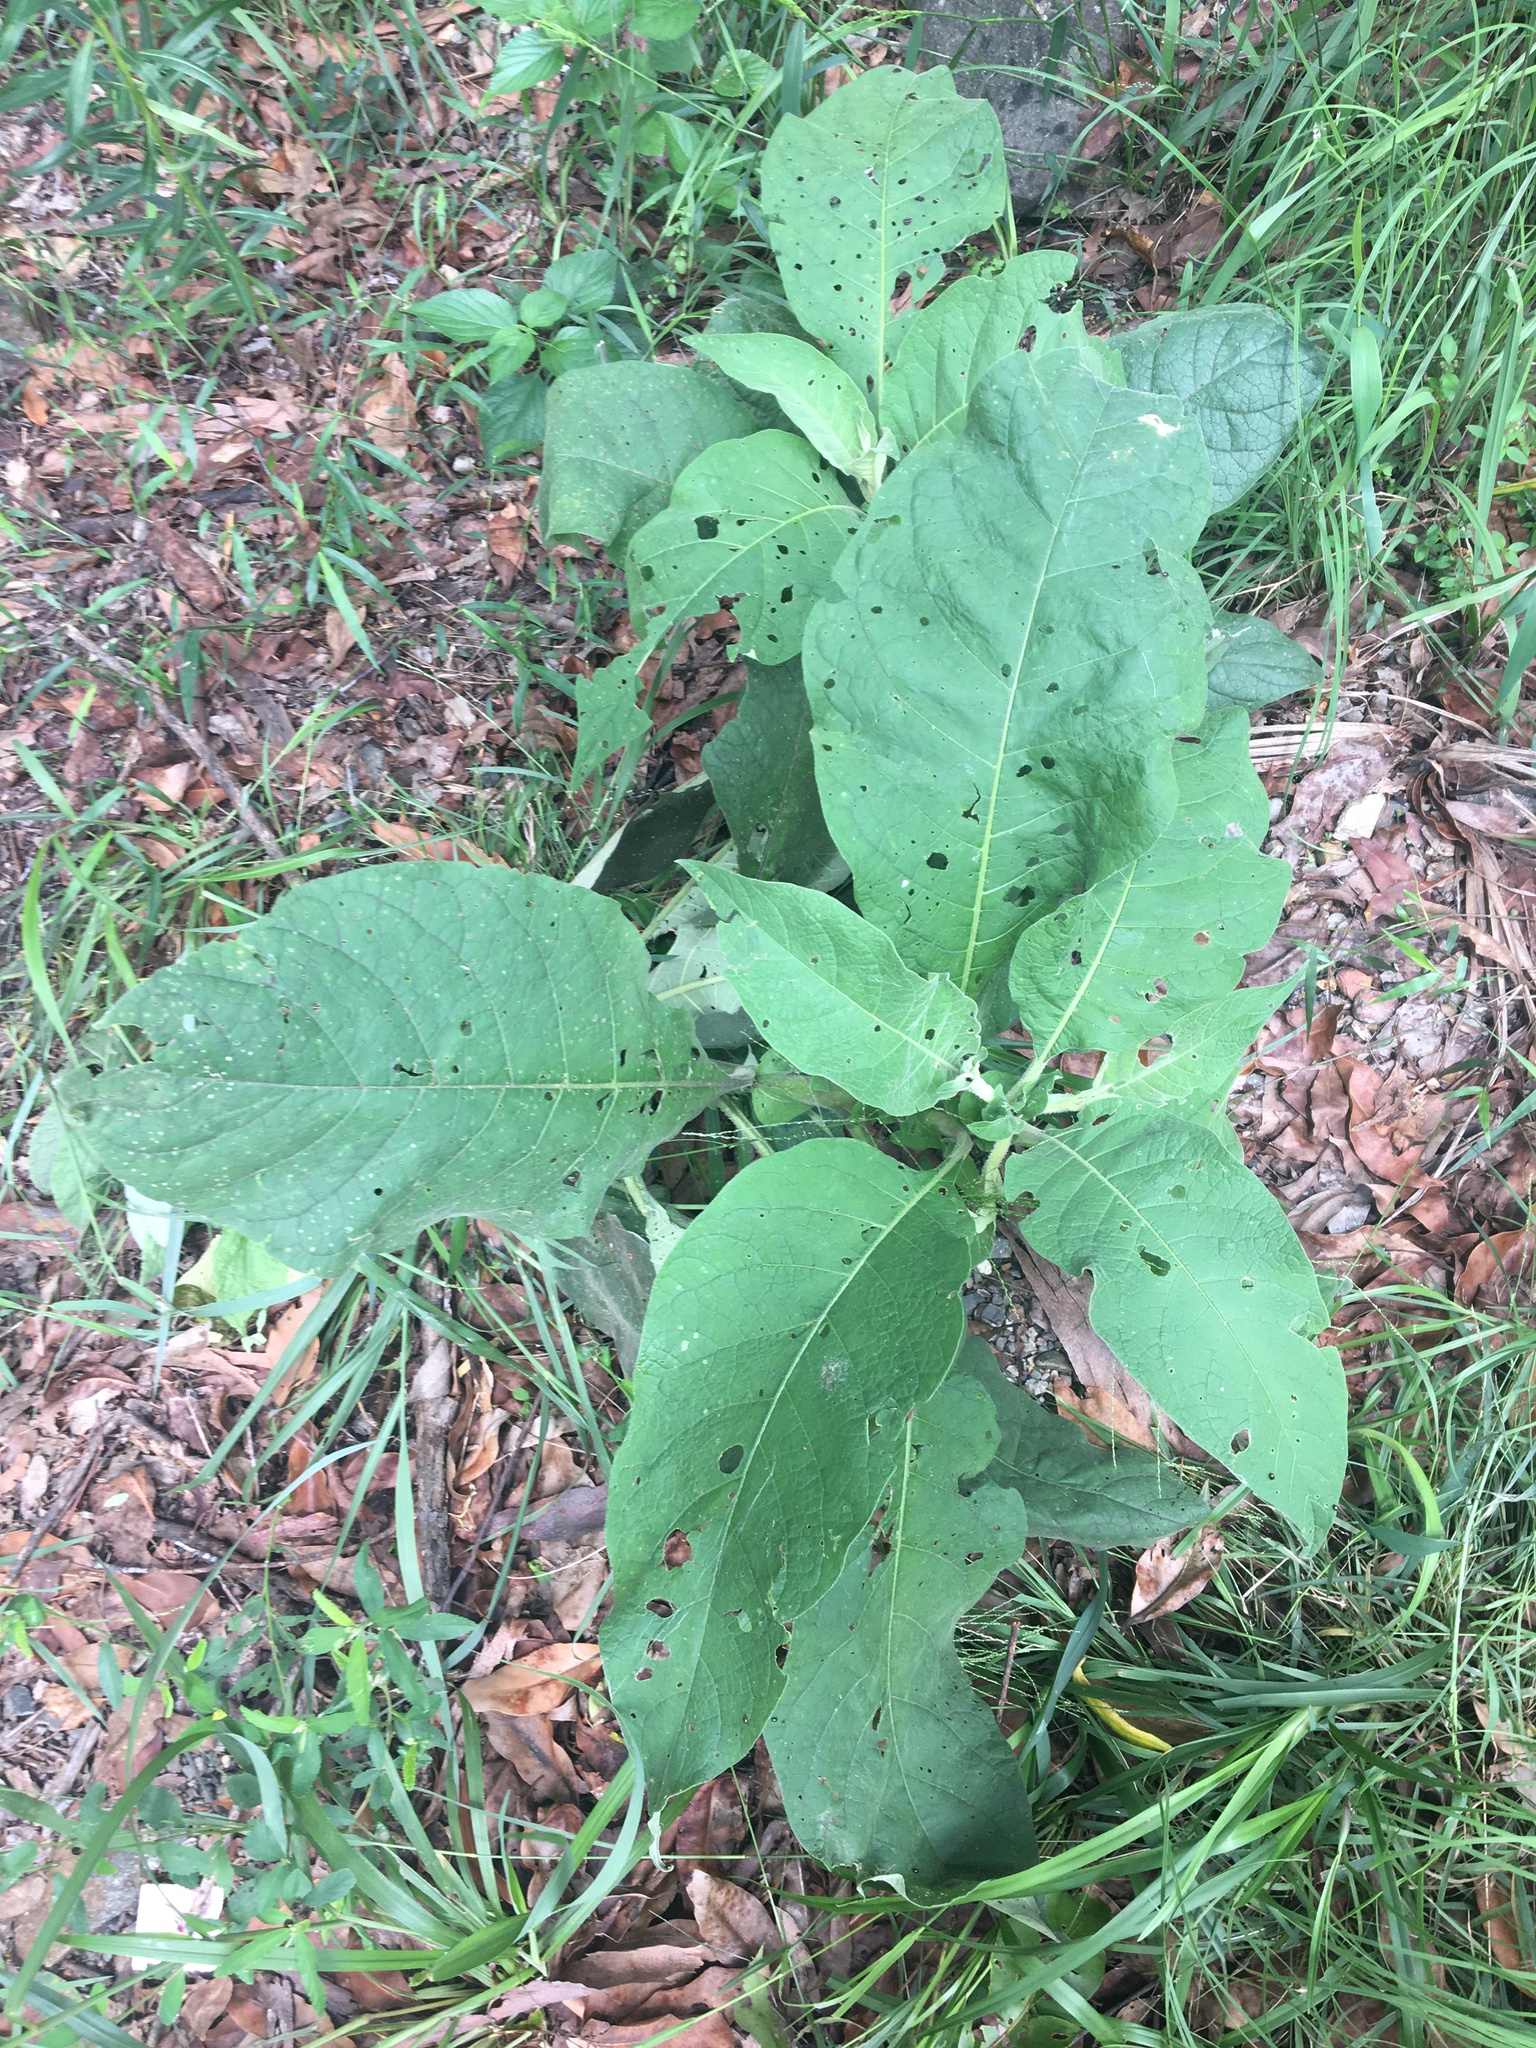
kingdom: Plantae
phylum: Tracheophyta
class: Magnoliopsida
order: Solanales
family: Solanaceae
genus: Solanum
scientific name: Solanum mauritianum
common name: Earleaf nightshade
